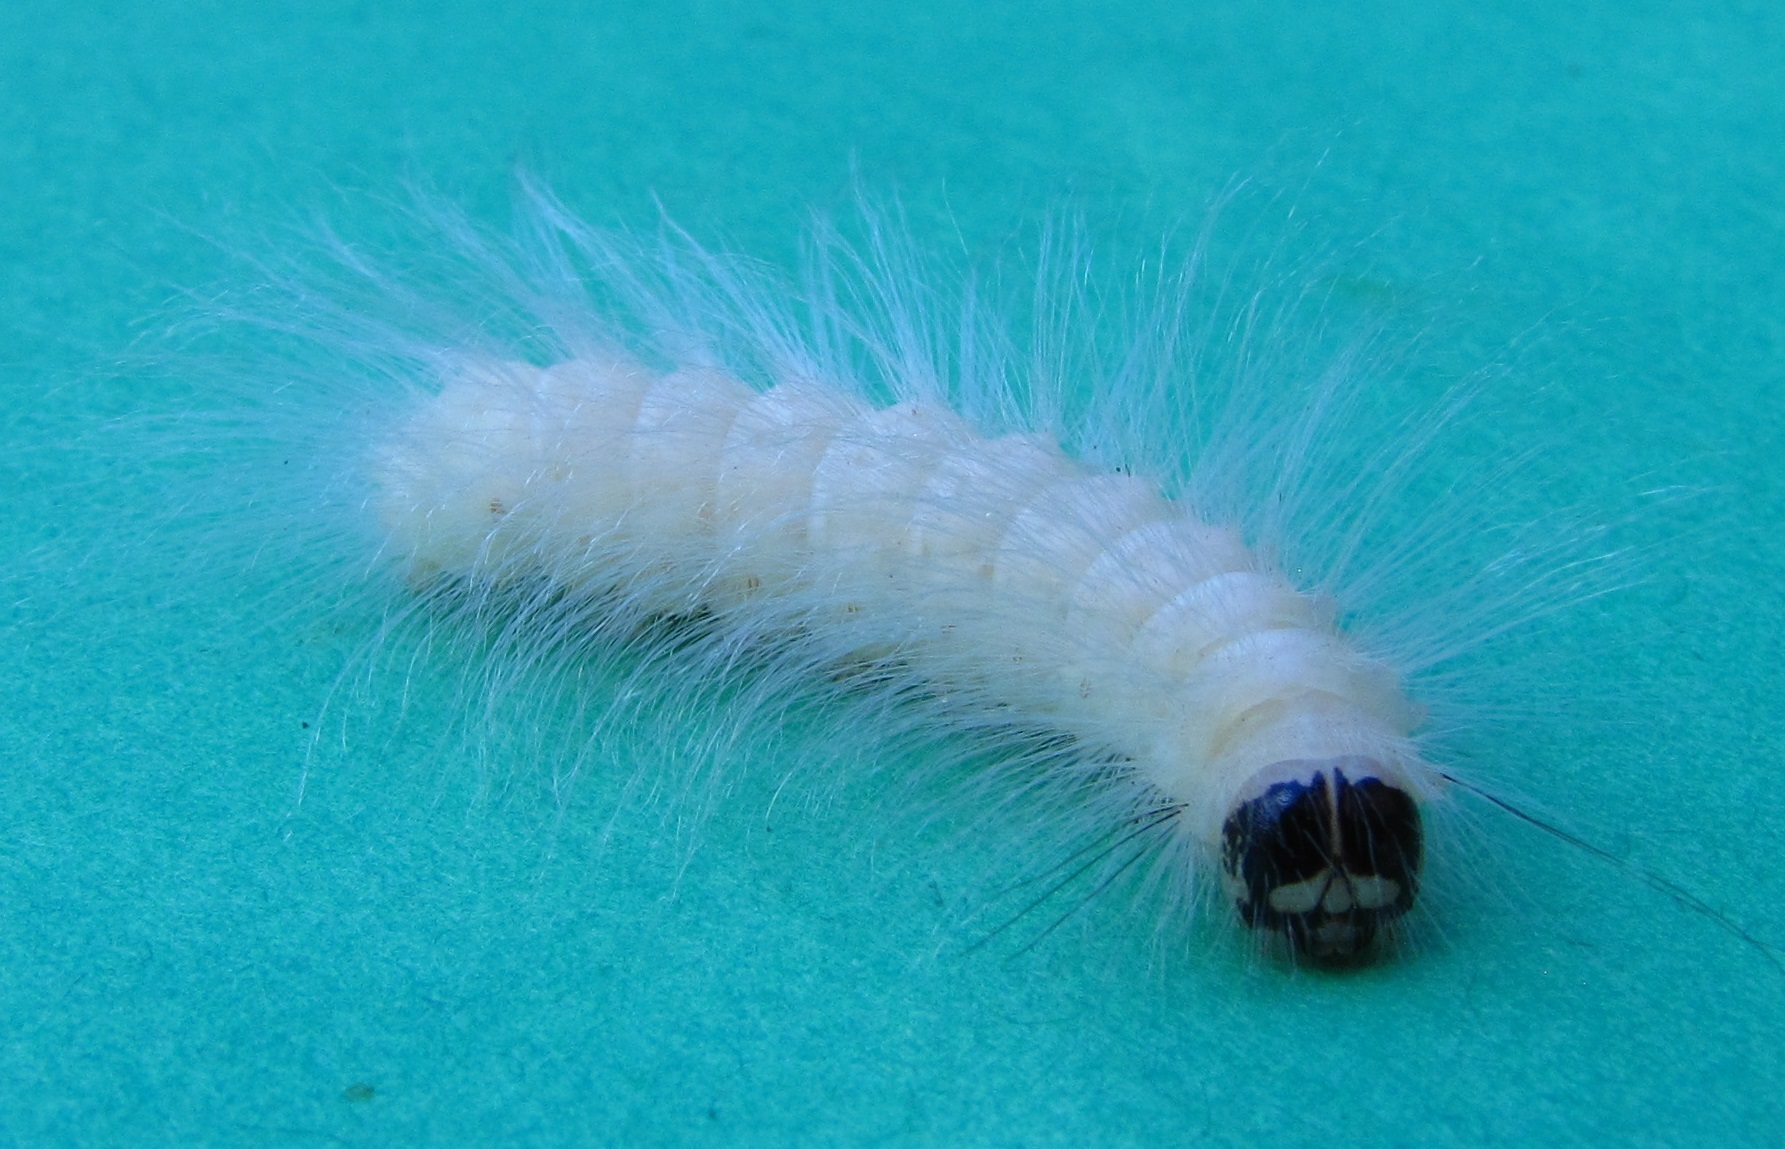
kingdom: Animalia
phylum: Arthropoda
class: Insecta
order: Lepidoptera
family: Noctuidae
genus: Charadra
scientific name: Charadra deridens
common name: Marbled tuffet
